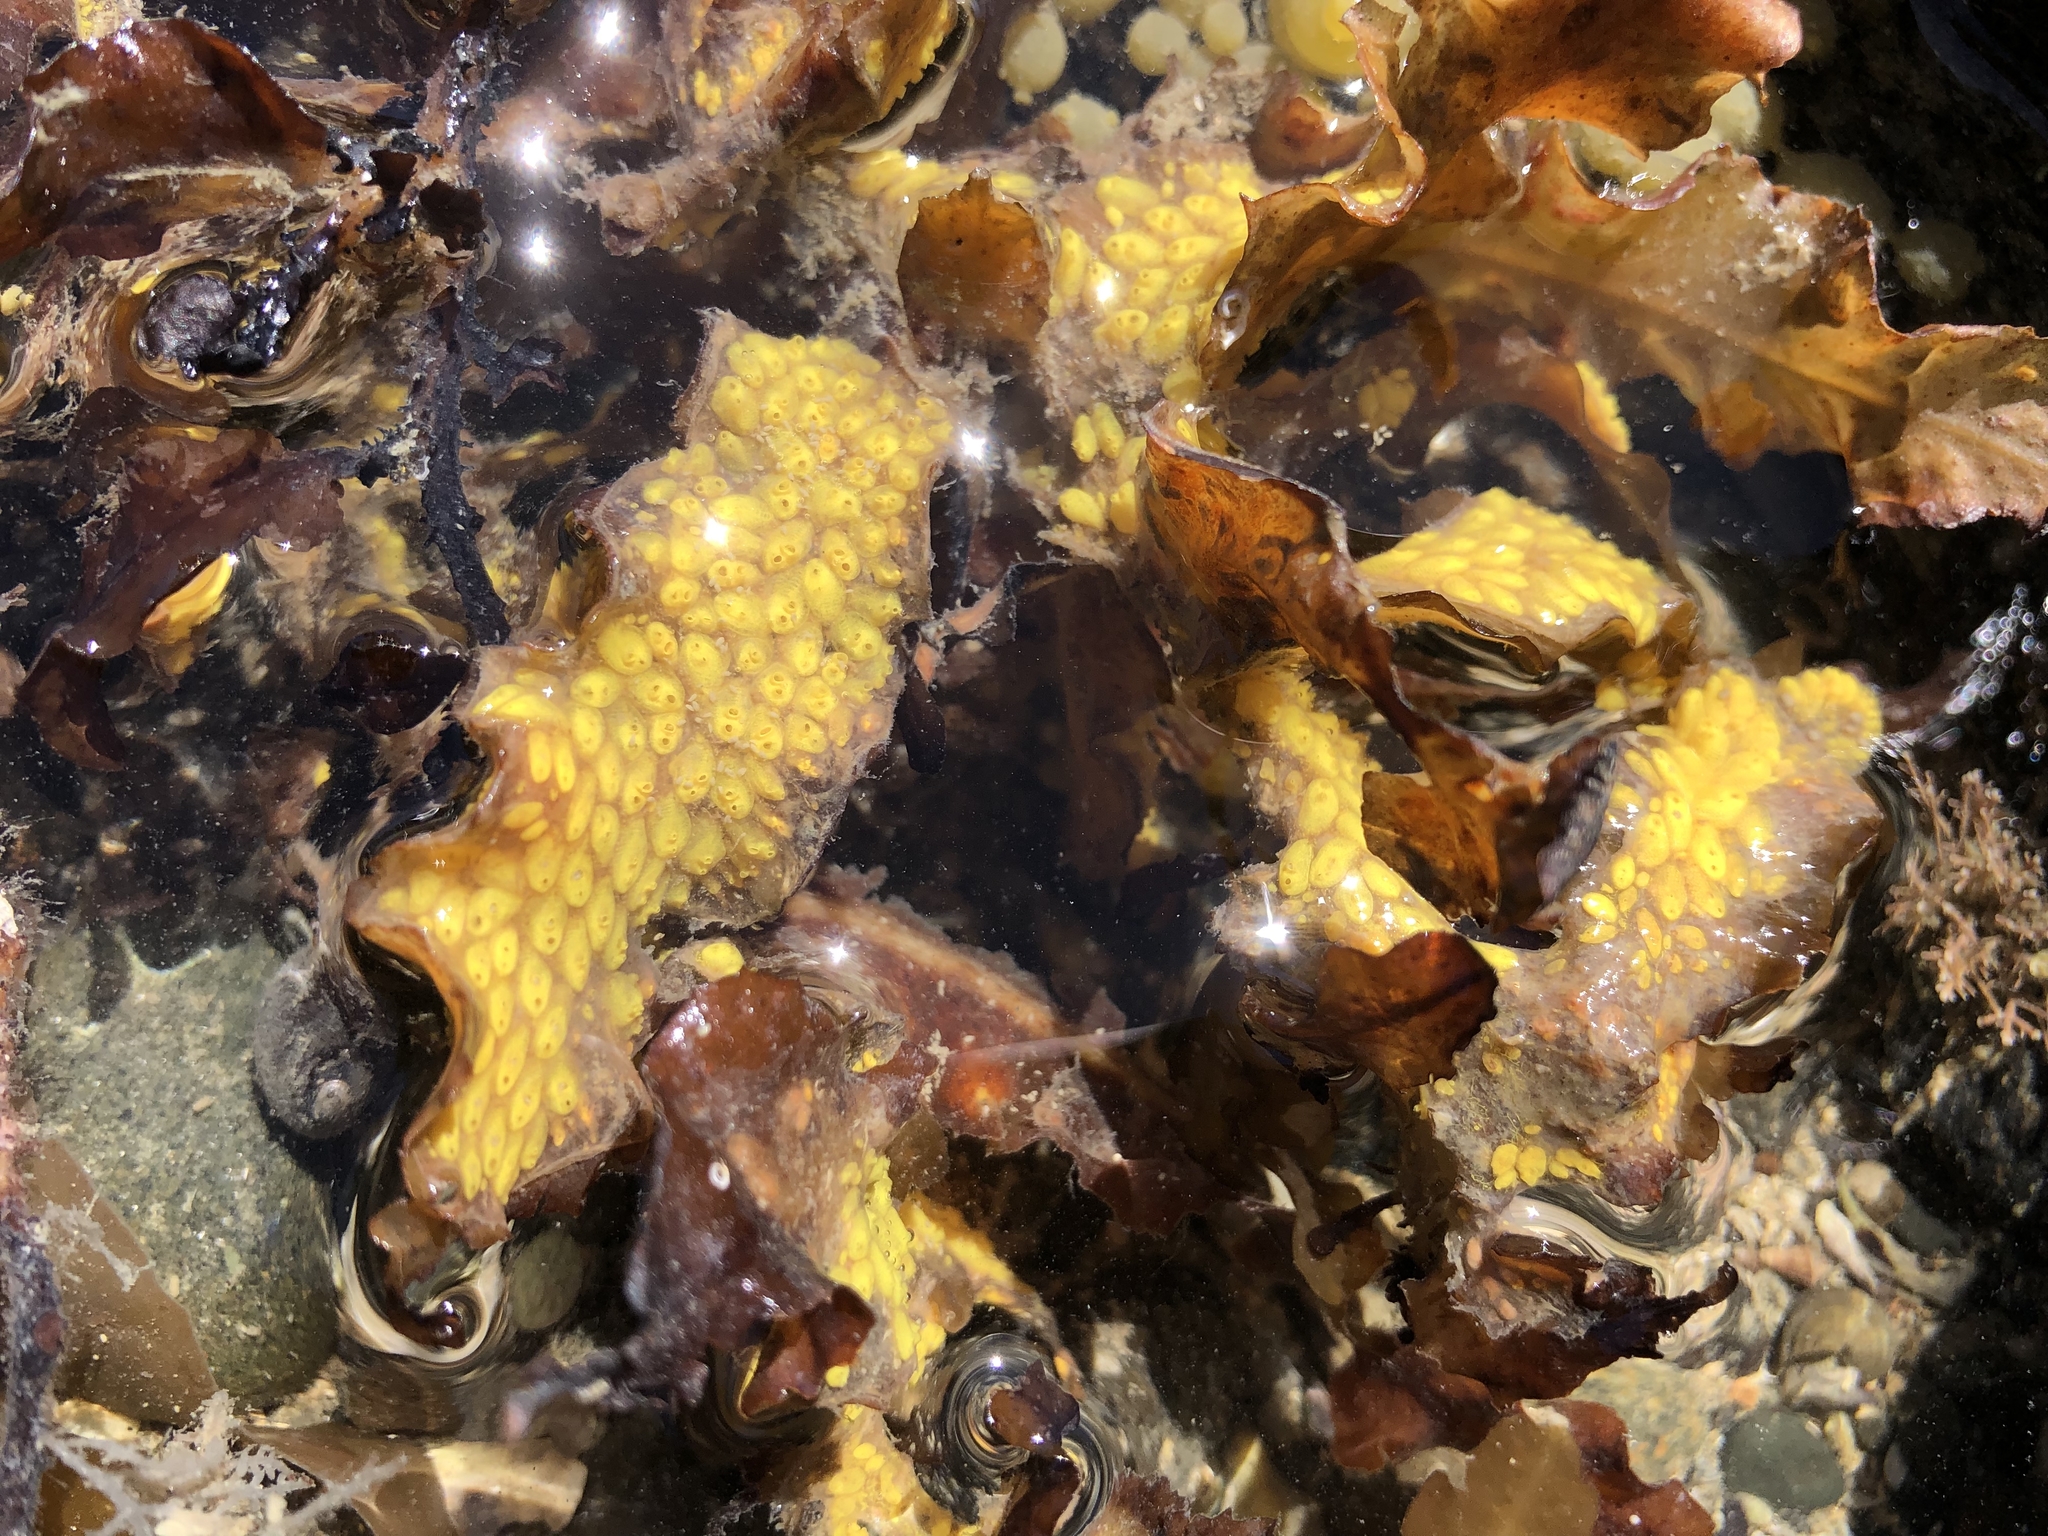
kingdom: Animalia
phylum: Chordata
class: Ascidiacea
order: Stolidobranchia
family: Styelidae
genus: Symplegma
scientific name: Symplegma brakenhielmi
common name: Ascidian
